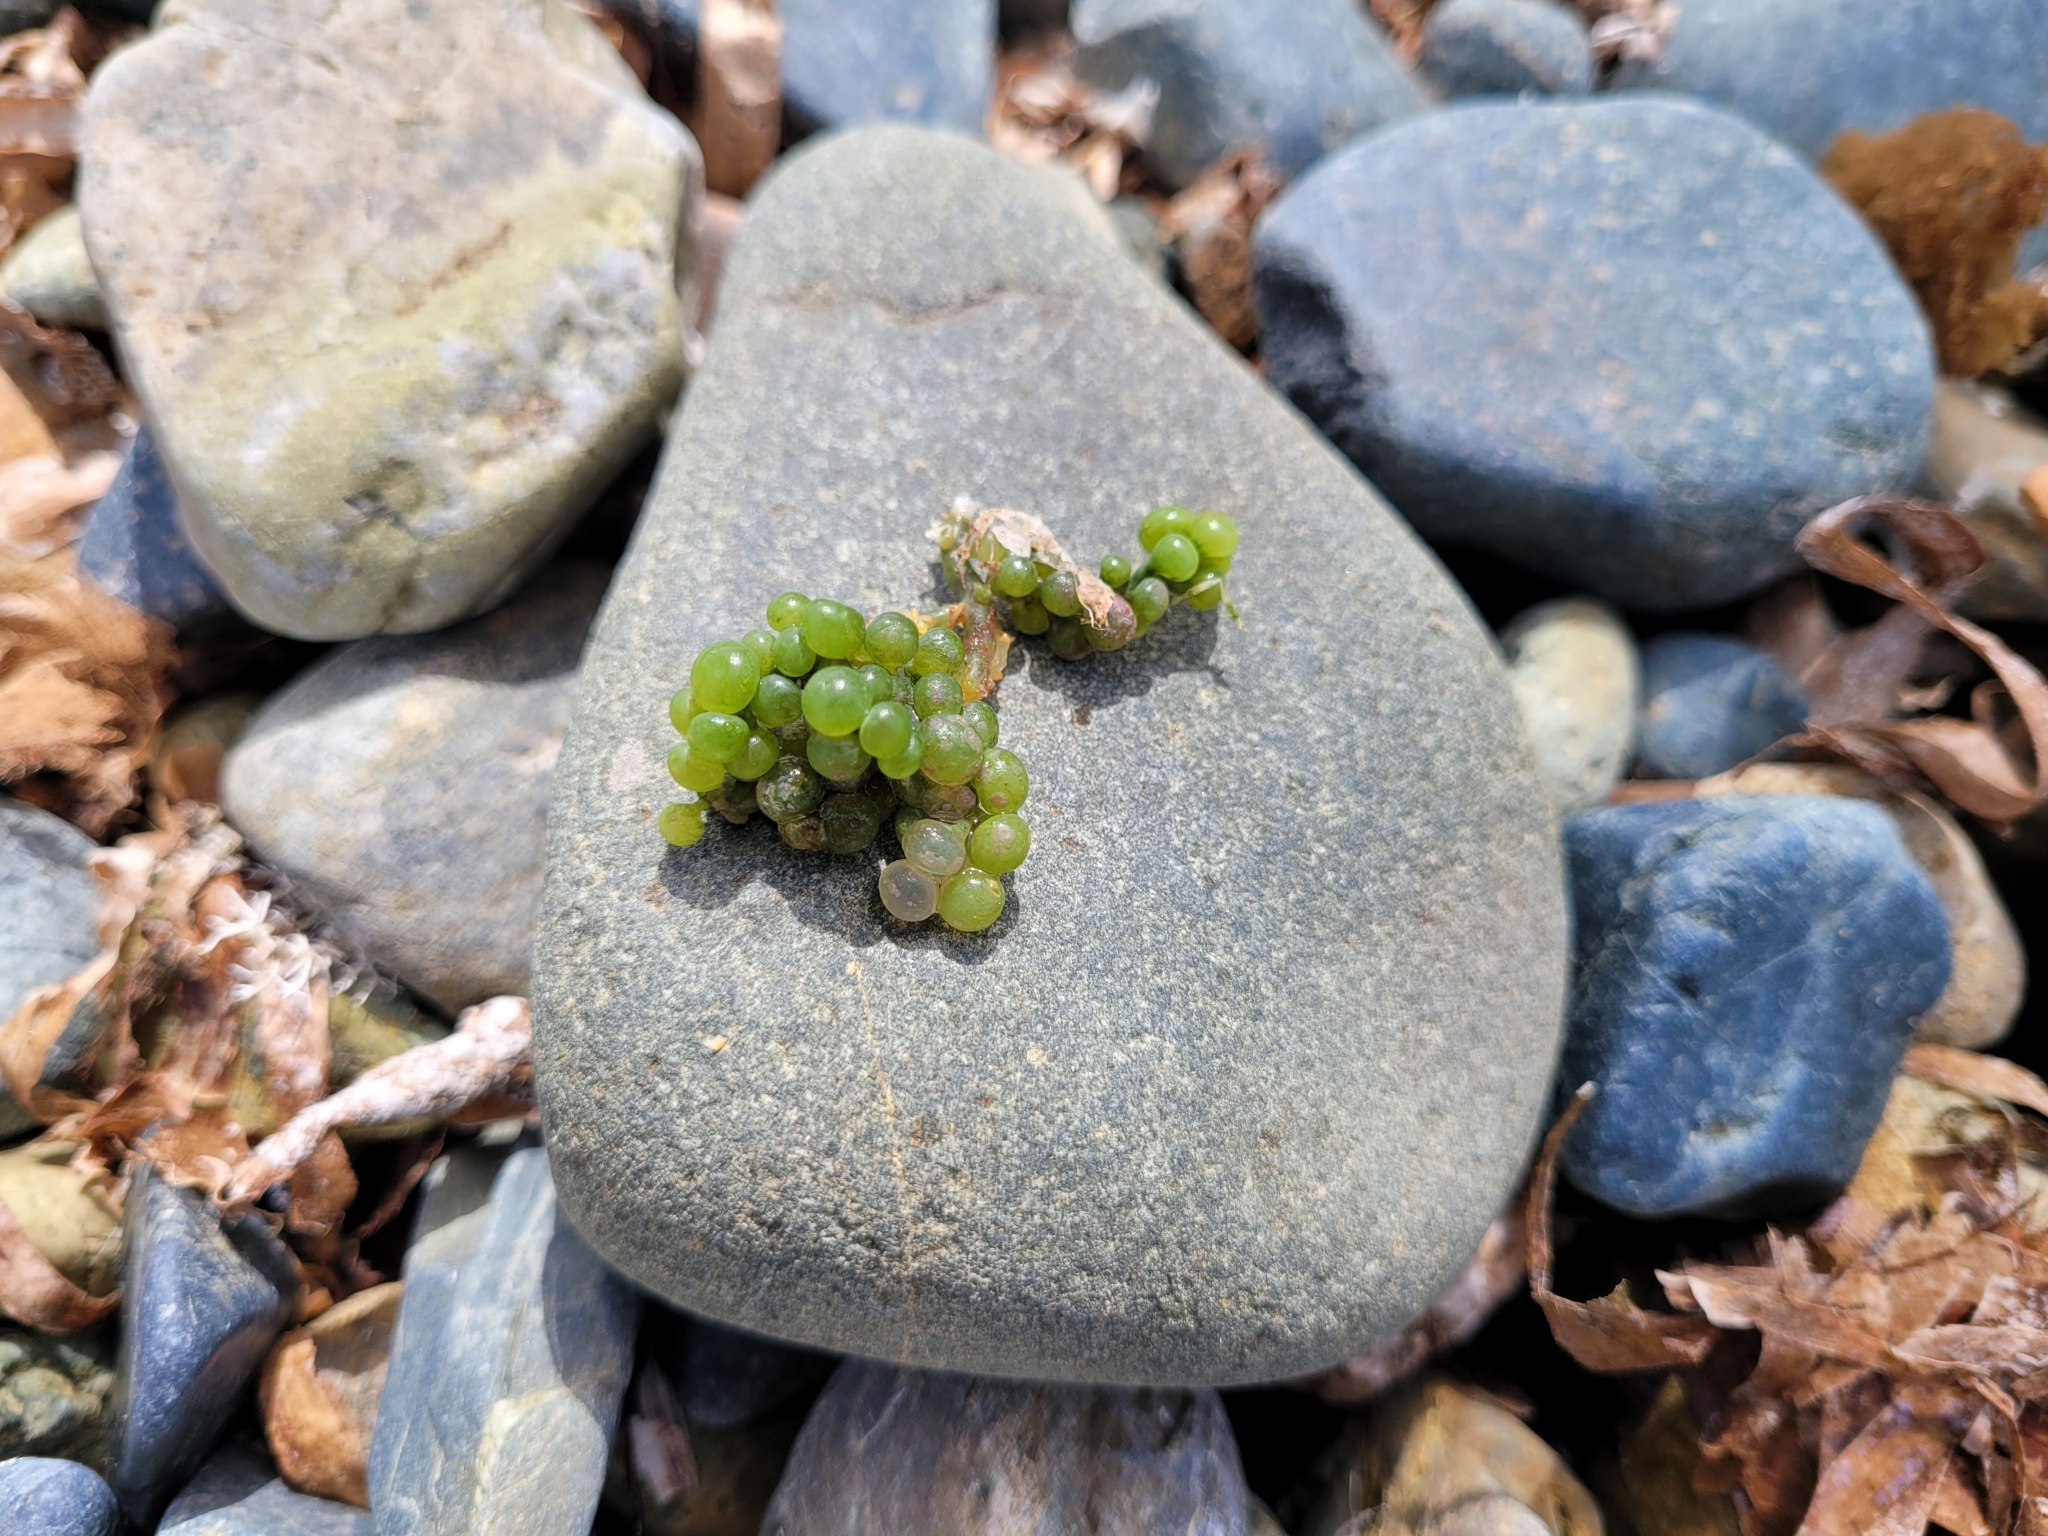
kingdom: Plantae
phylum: Chlorophyta
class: Ulvophyceae
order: Bryopsidales
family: Caulerpaceae
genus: Caulerpa
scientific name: Caulerpa racemosa
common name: Green grape algae
